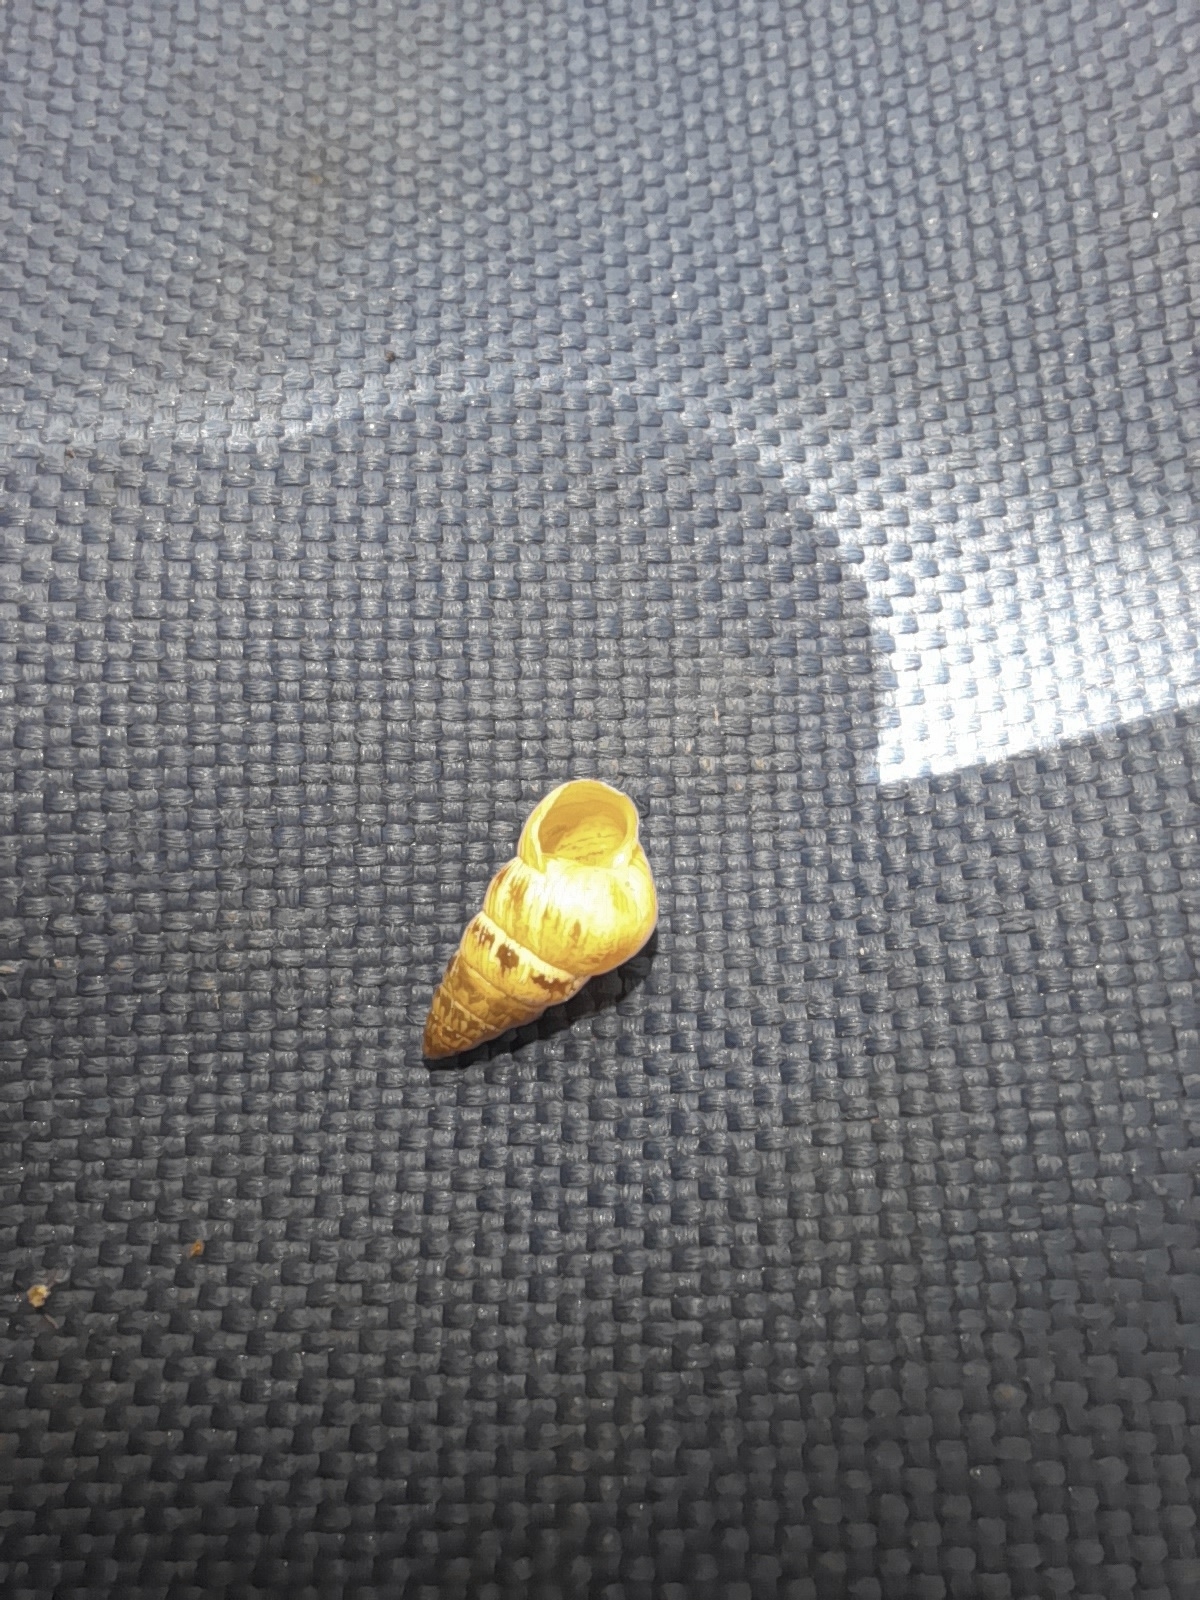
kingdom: Animalia
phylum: Mollusca
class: Gastropoda
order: Stylommatophora
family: Geomitridae
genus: Cochlicella
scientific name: Cochlicella acuta
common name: Pointed snail
